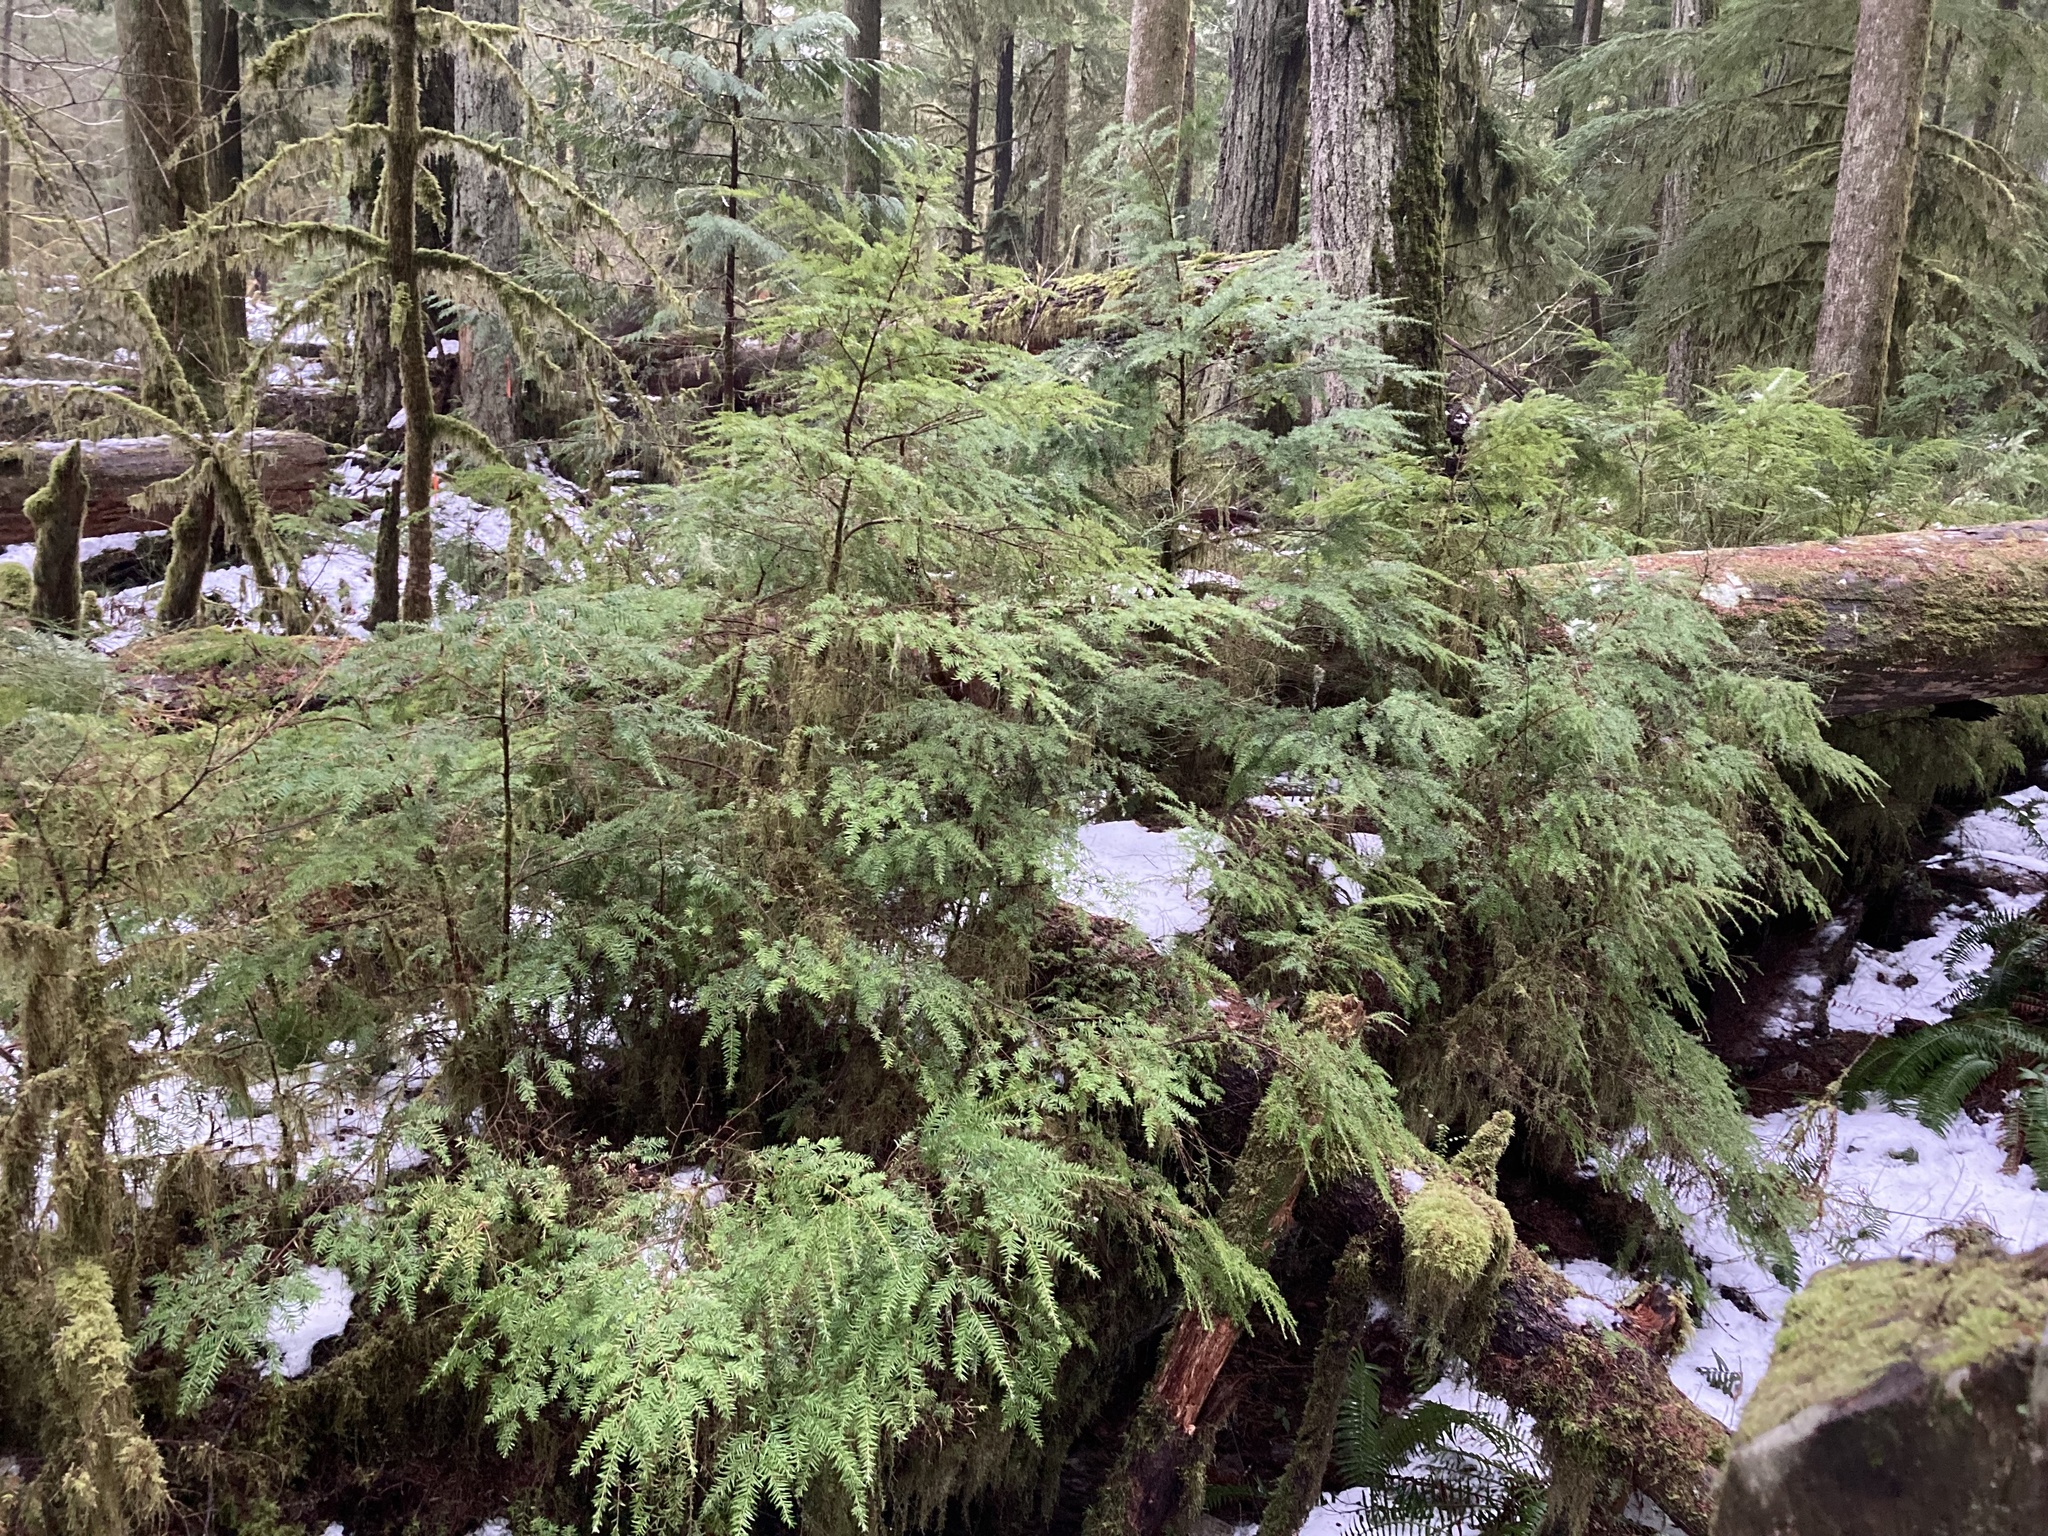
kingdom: Plantae
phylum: Tracheophyta
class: Pinopsida
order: Pinales
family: Pinaceae
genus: Tsuga
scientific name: Tsuga heterophylla
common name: Western hemlock
